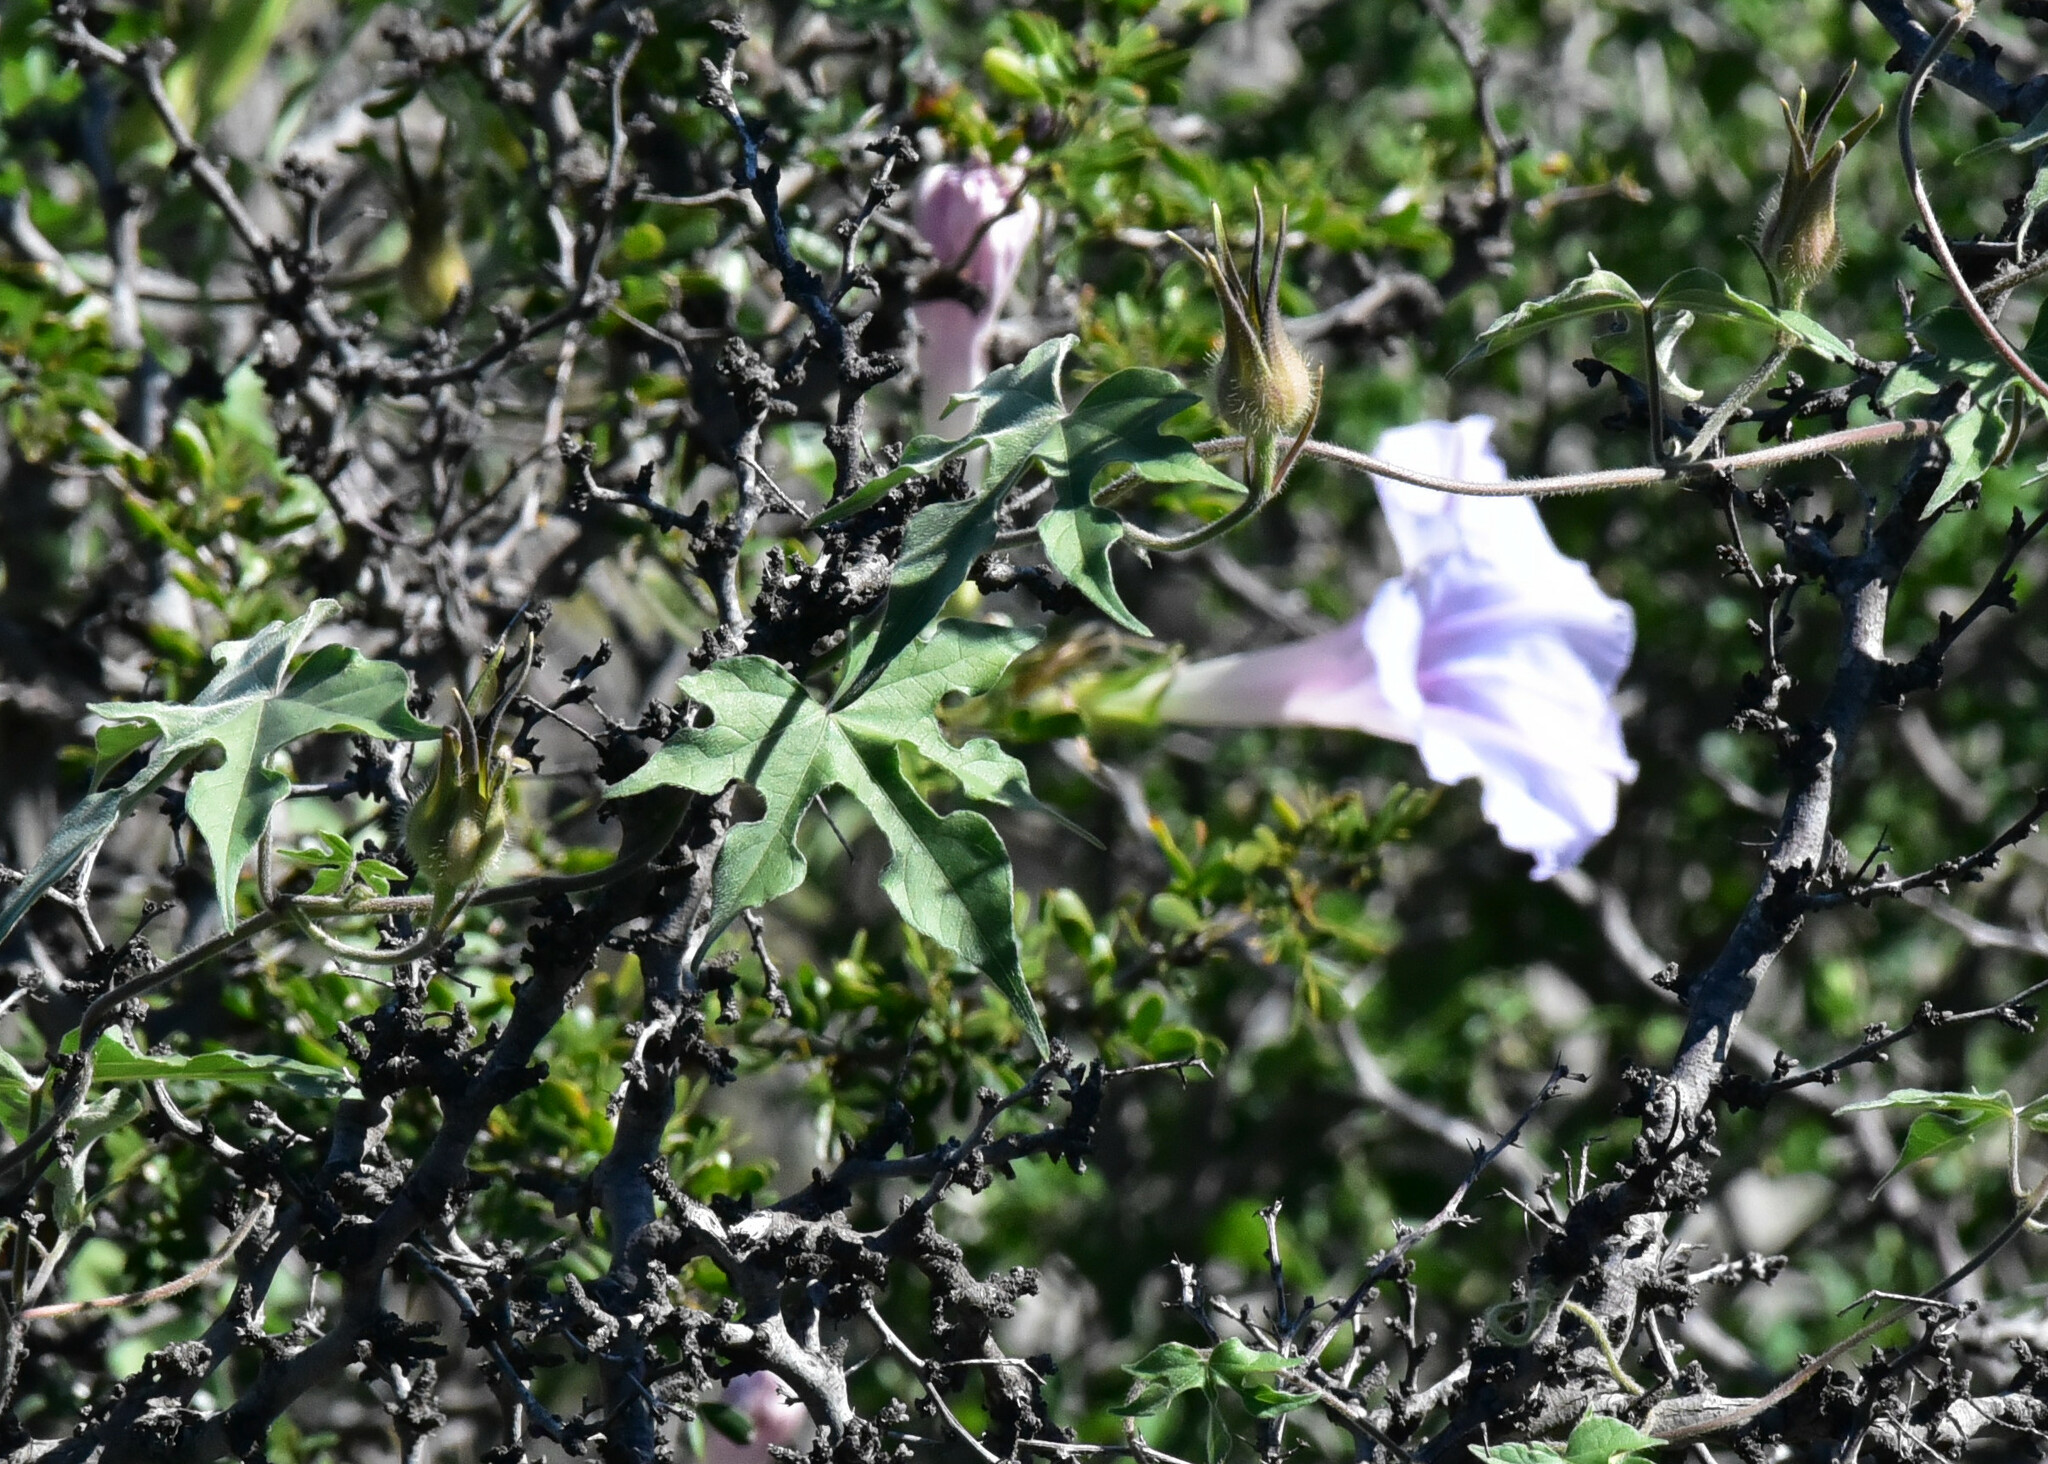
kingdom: Plantae
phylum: Tracheophyta
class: Magnoliopsida
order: Solanales
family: Convolvulaceae
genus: Ipomoea
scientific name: Ipomoea lindheimeri
